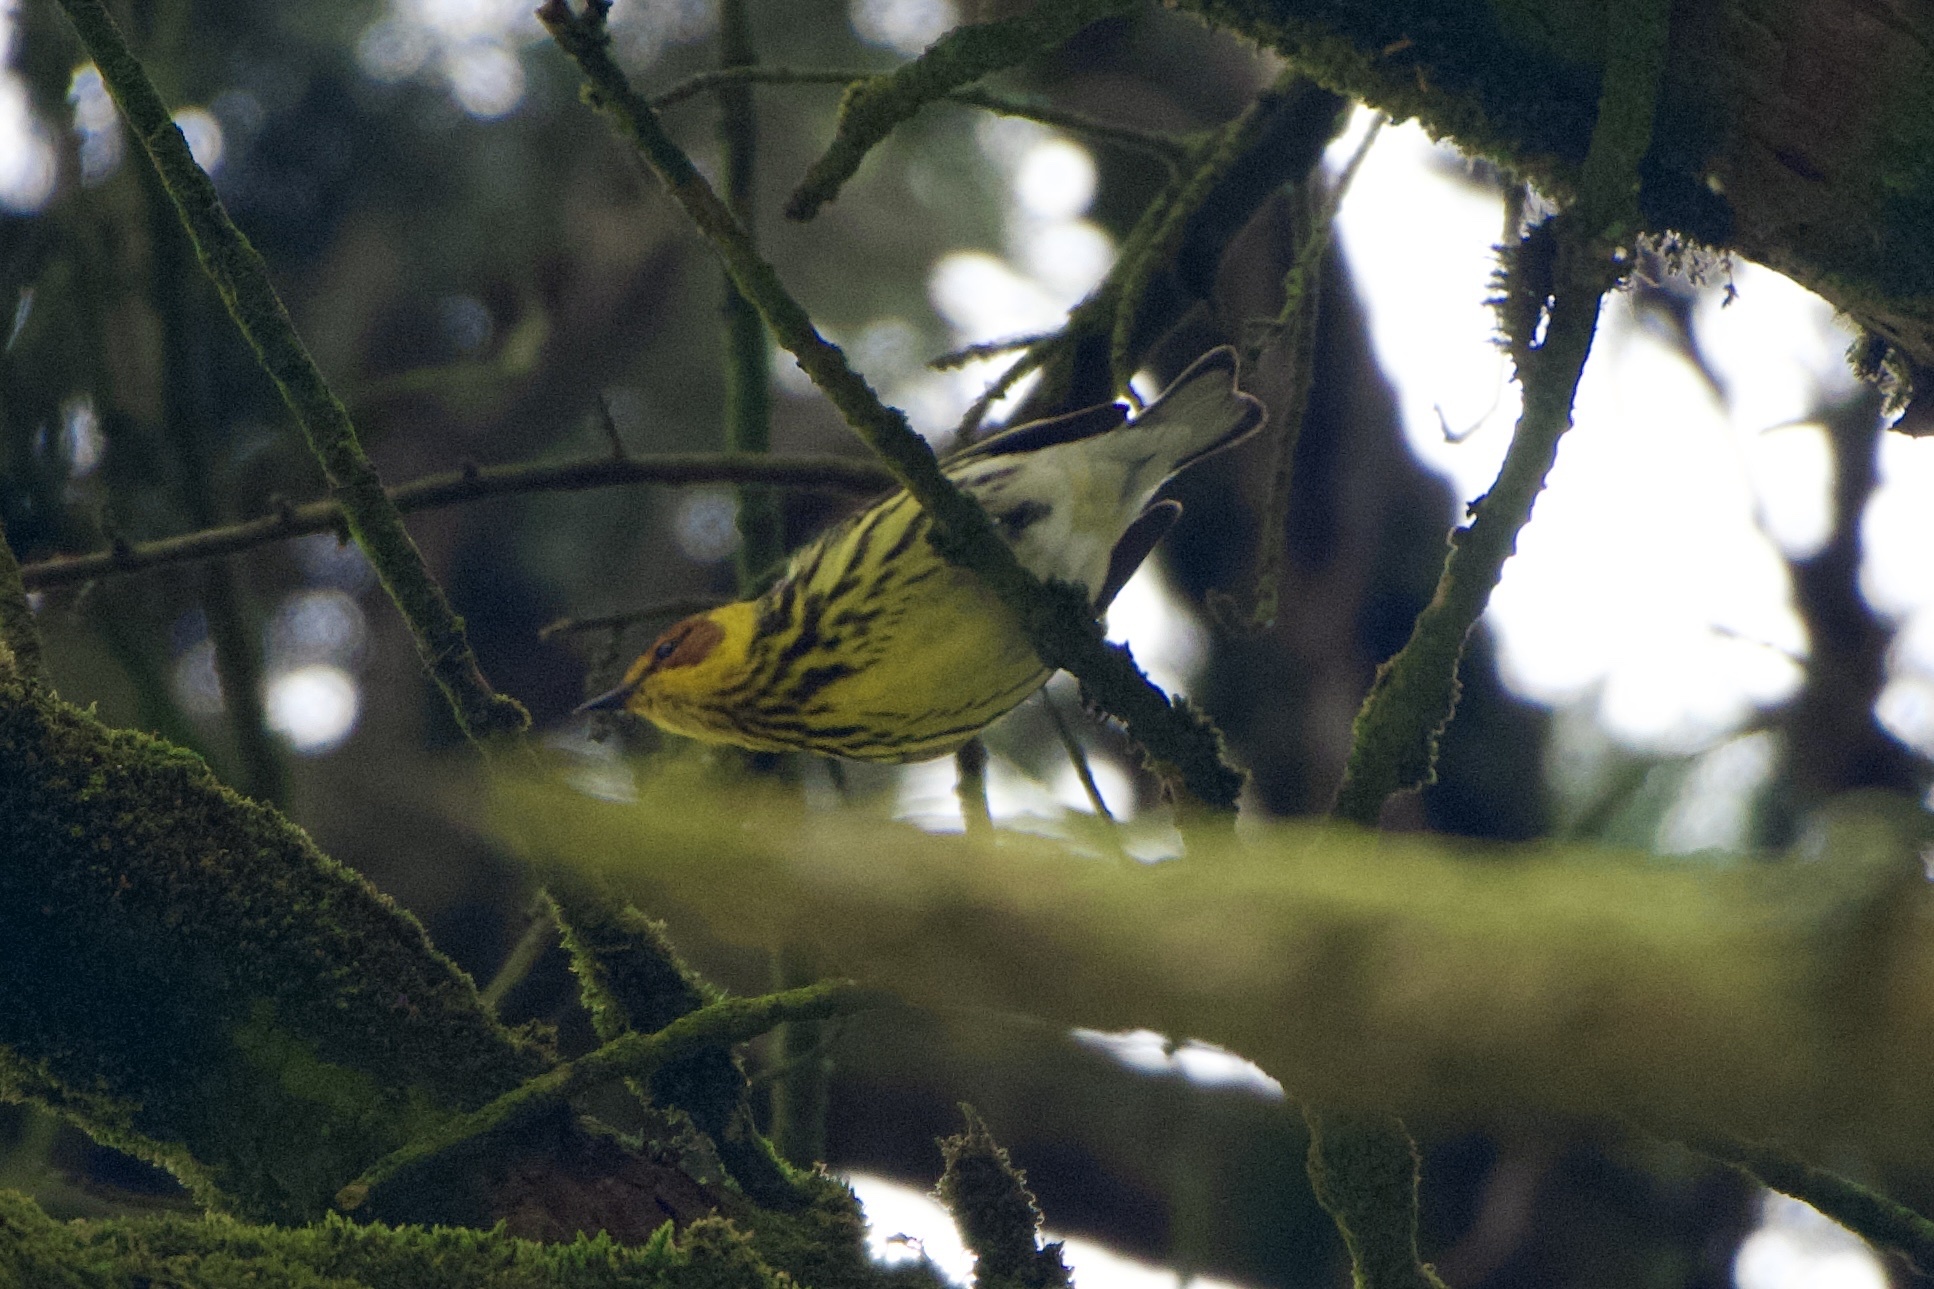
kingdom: Animalia
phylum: Chordata
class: Aves
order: Passeriformes
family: Parulidae
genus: Setophaga
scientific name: Setophaga tigrina
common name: Cape may warbler
